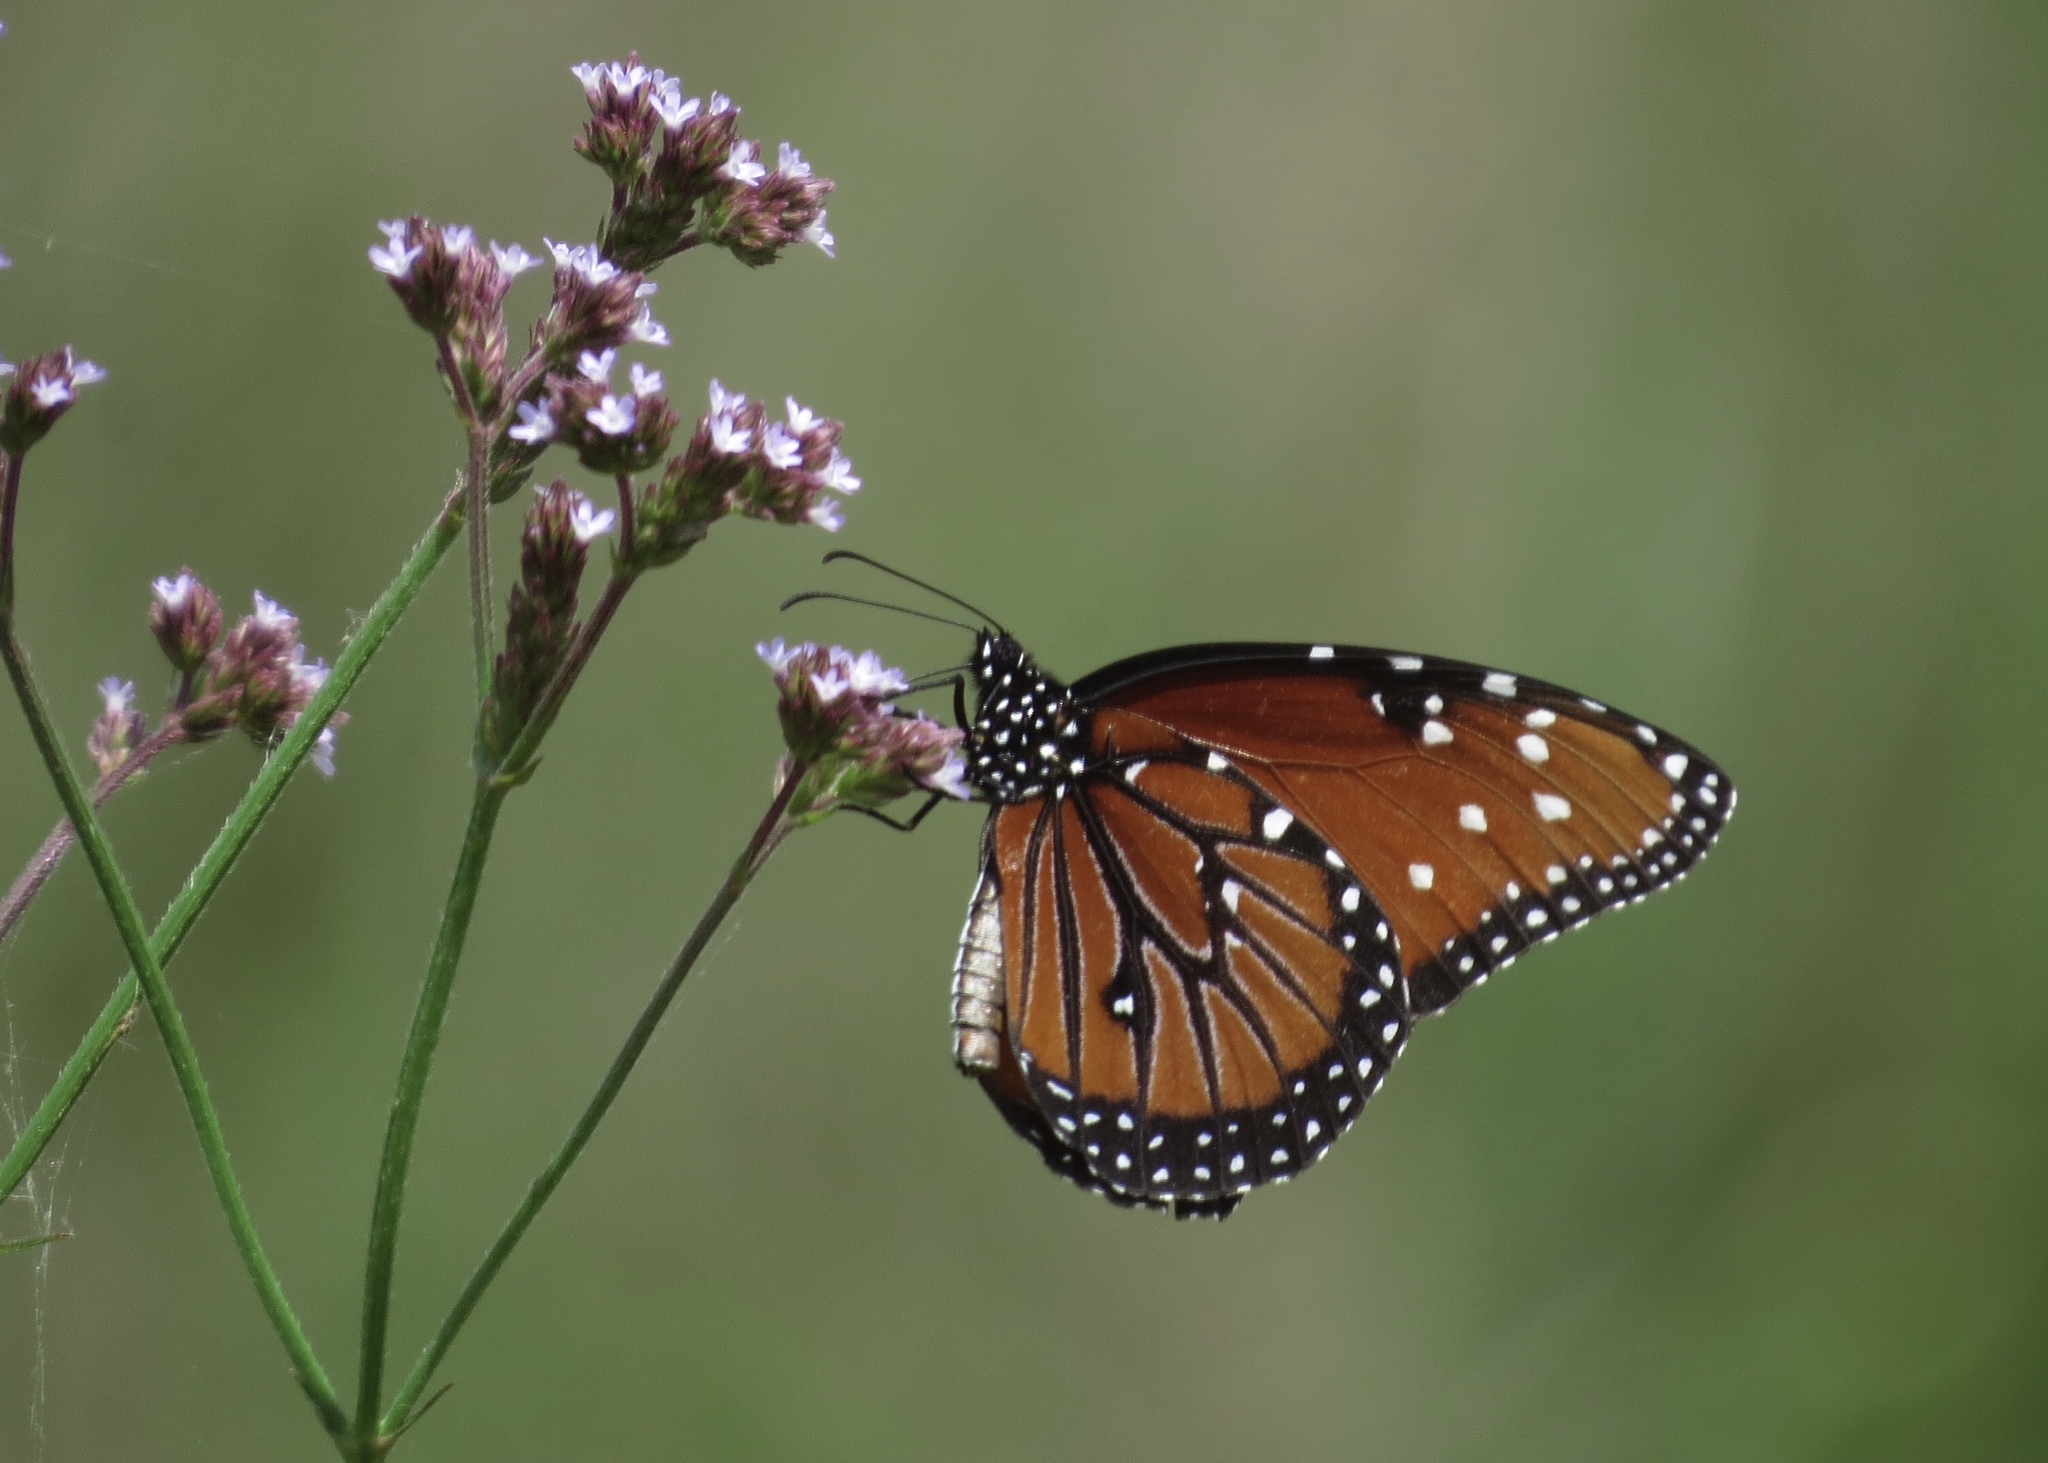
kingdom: Animalia
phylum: Arthropoda
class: Insecta
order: Lepidoptera
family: Nymphalidae
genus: Danaus
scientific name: Danaus gilippus
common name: Queen
